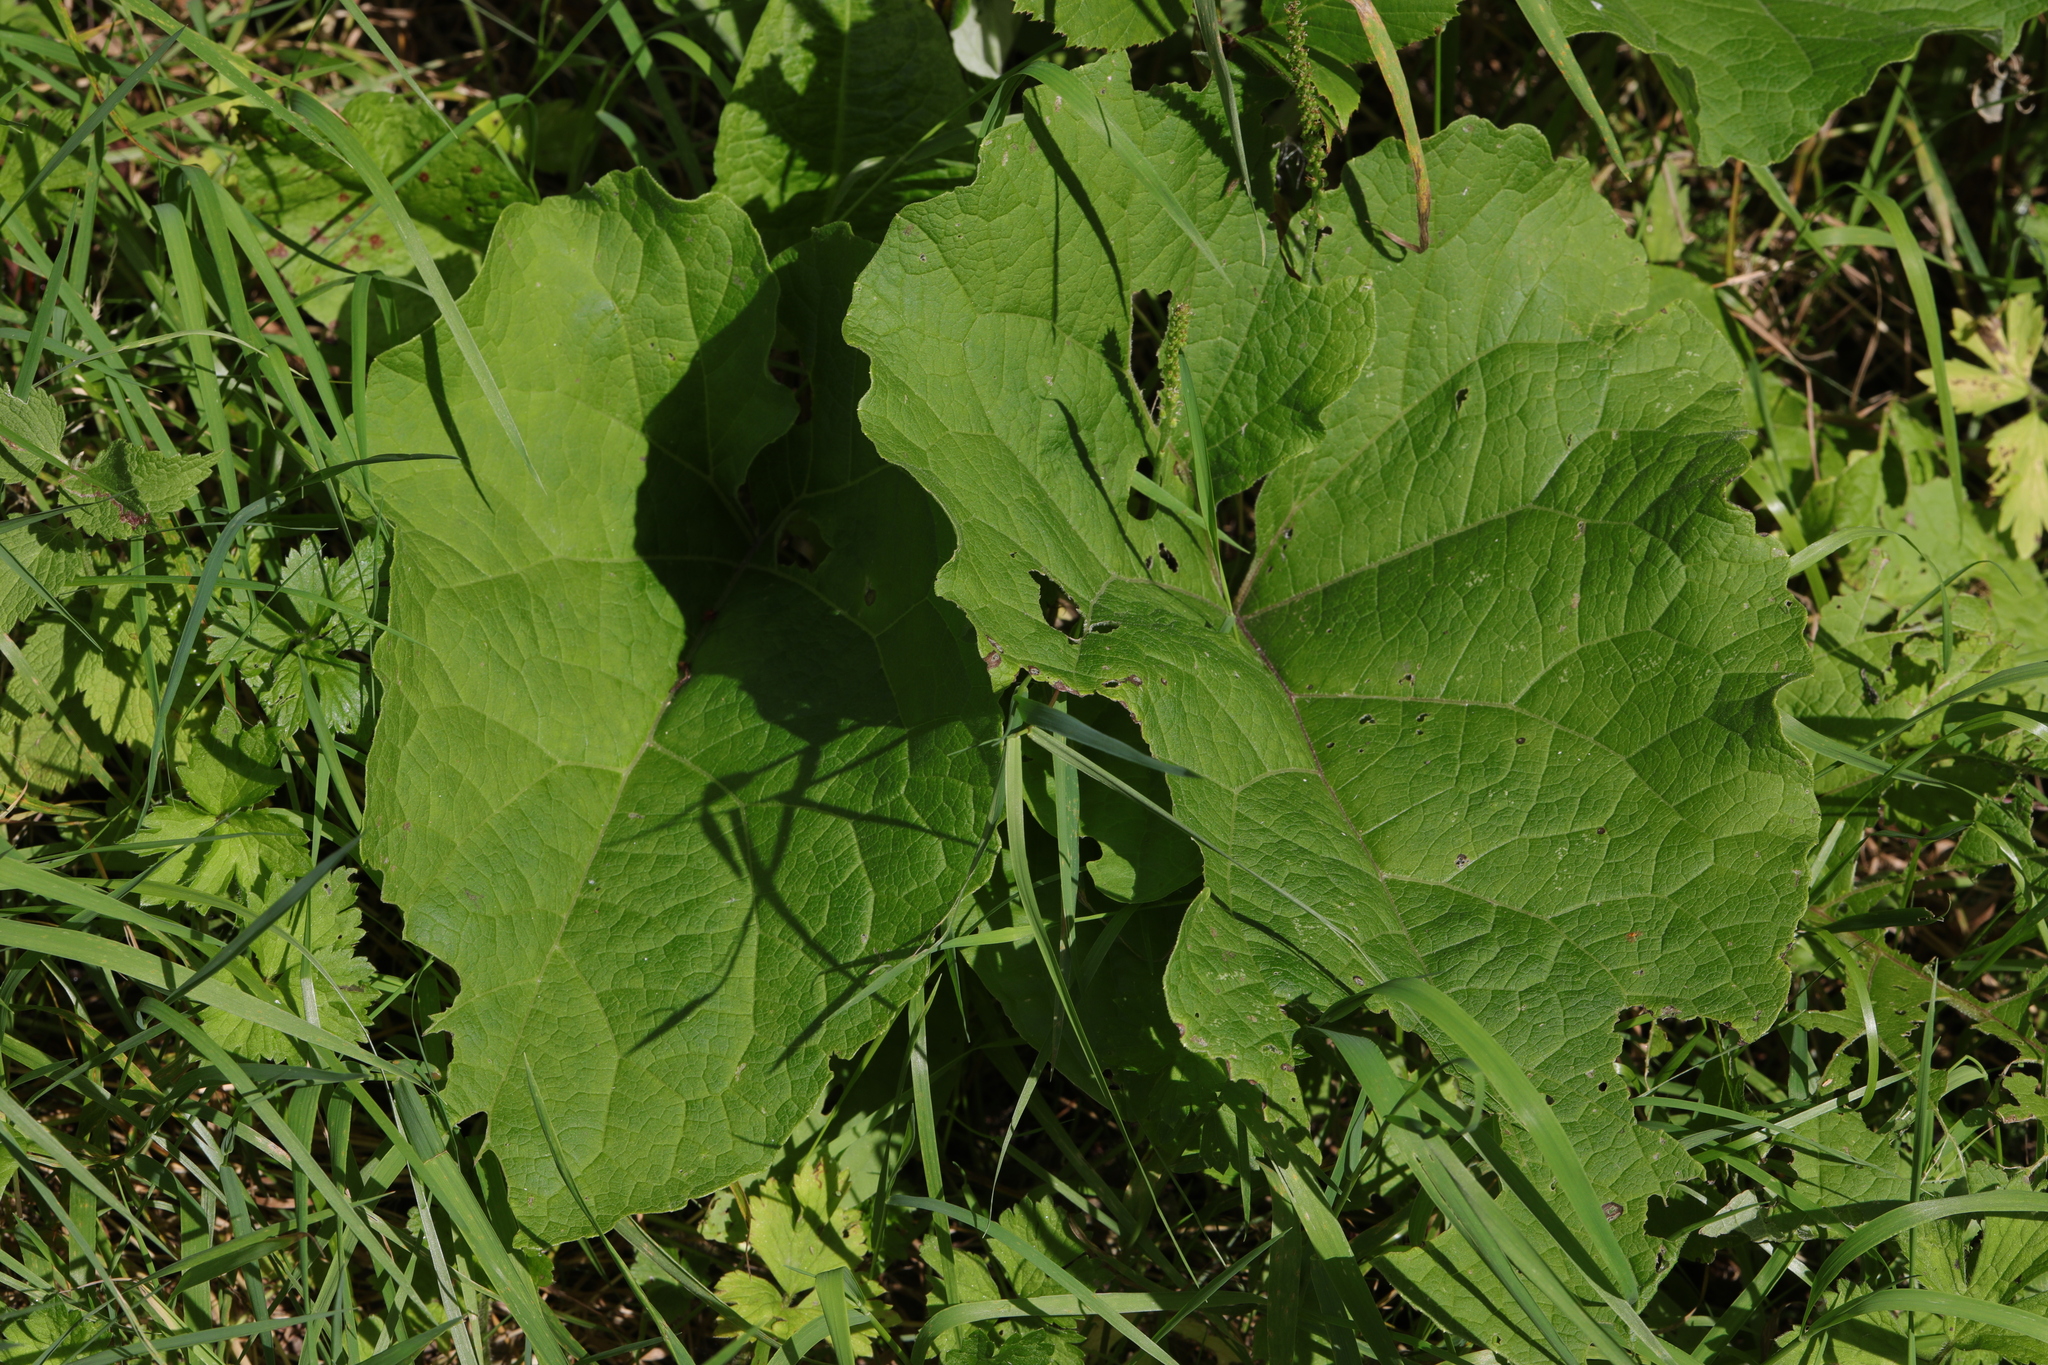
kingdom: Plantae
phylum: Tracheophyta
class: Magnoliopsida
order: Asterales
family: Asteraceae
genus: Arctium
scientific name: Arctium minus
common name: Lesser burdock
